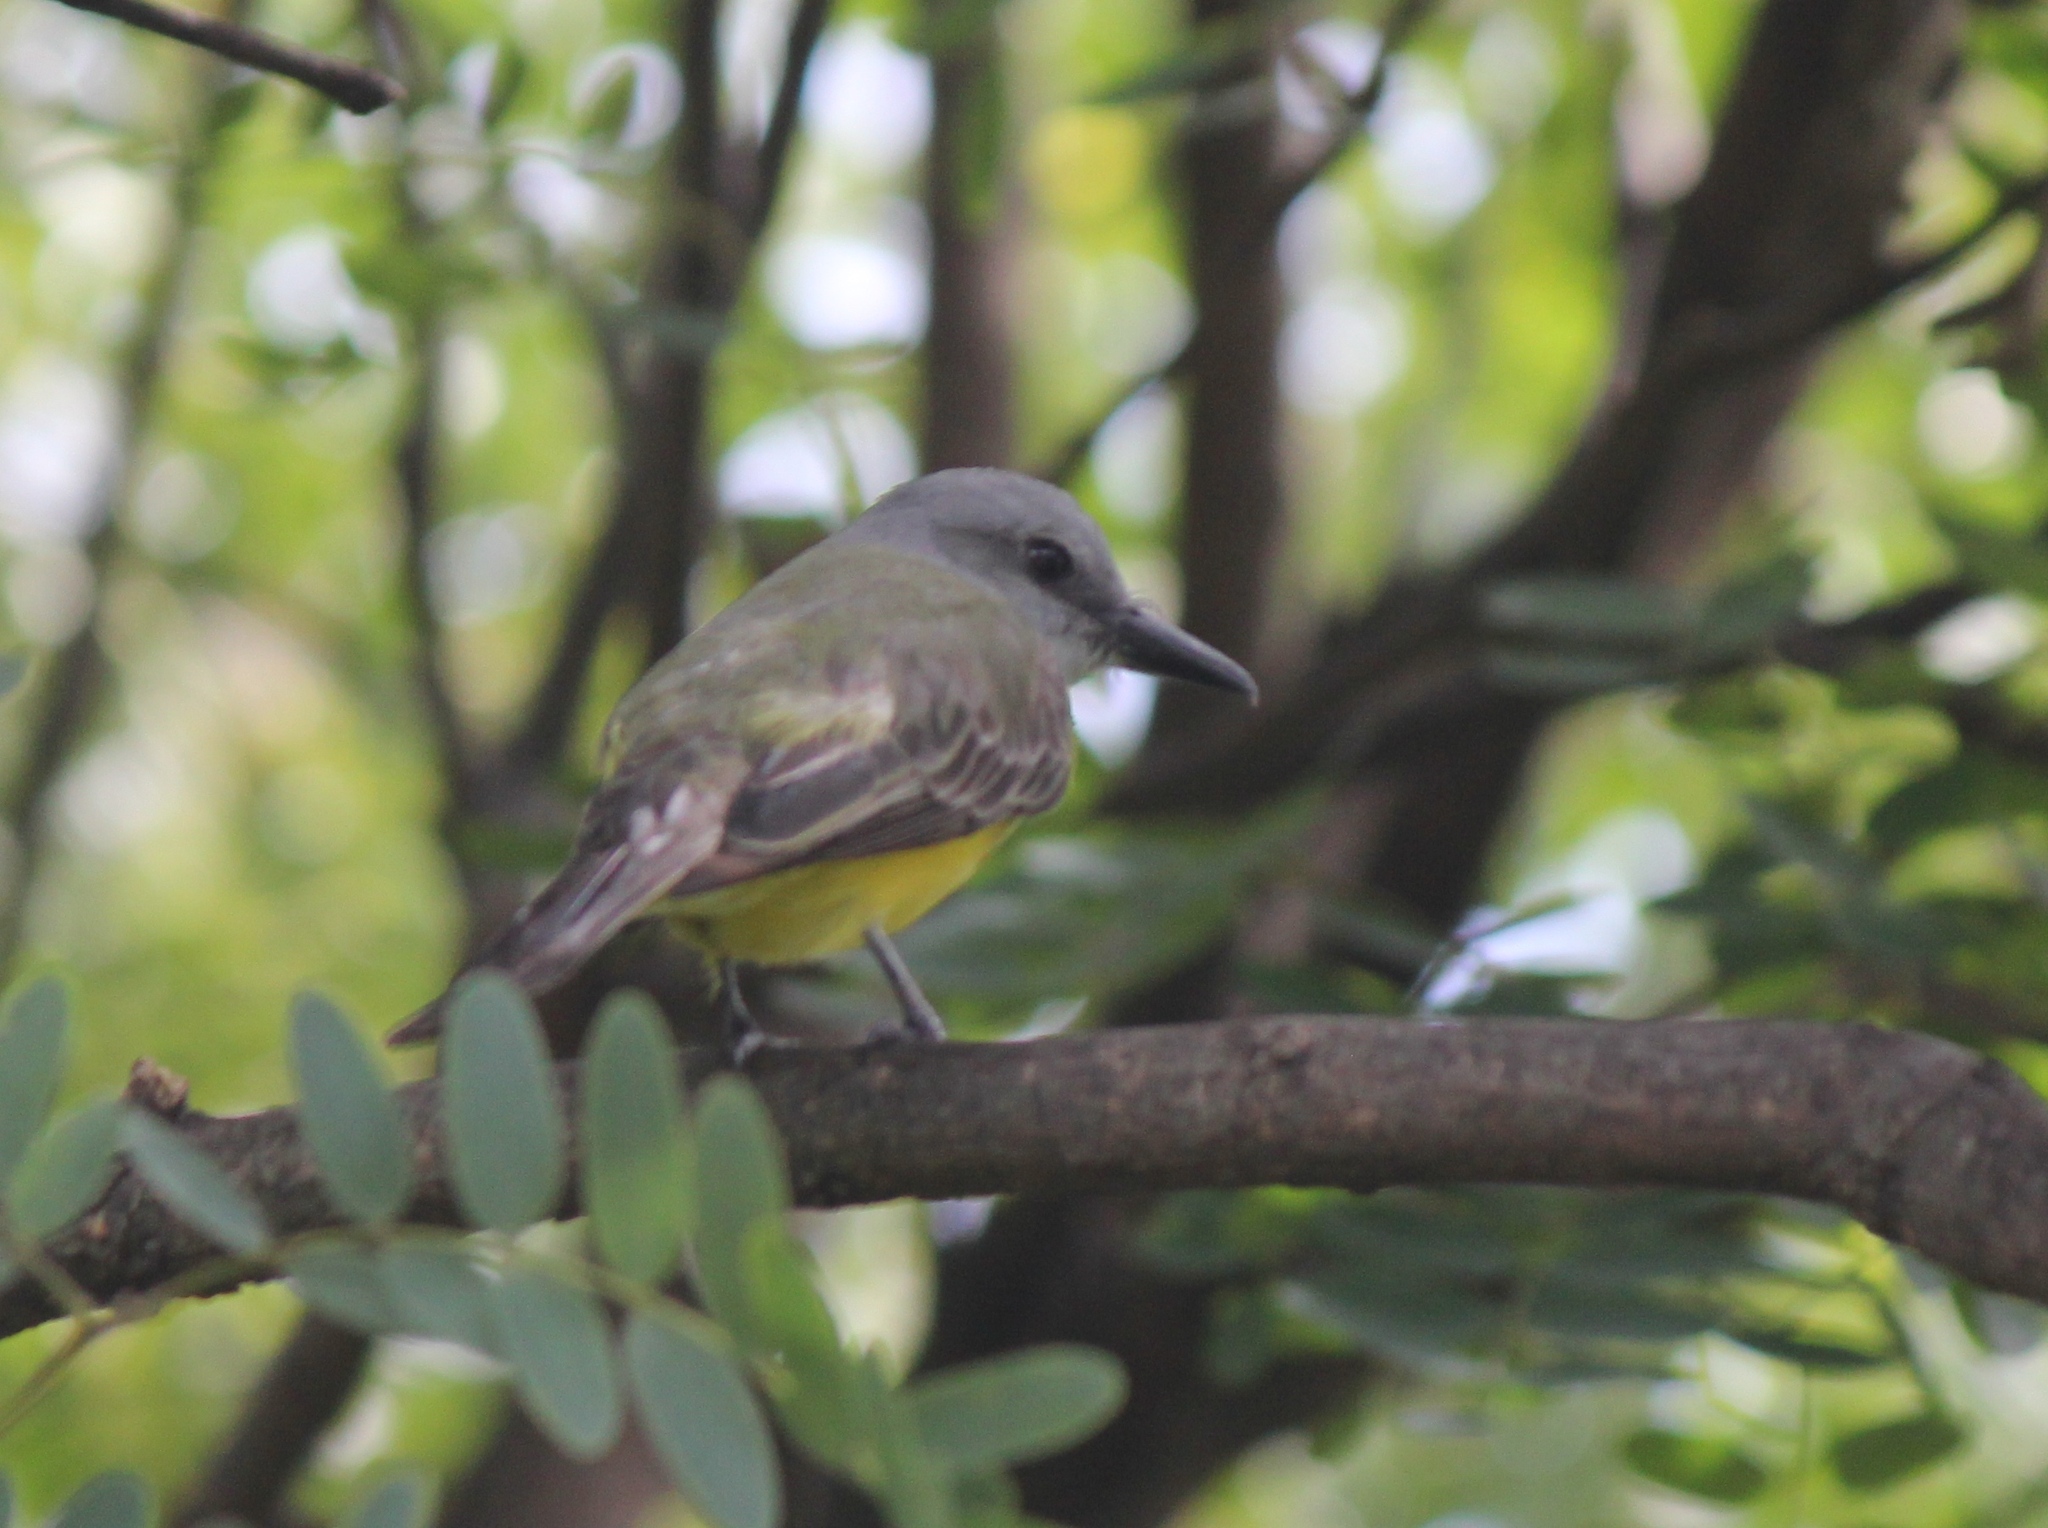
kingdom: Animalia
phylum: Chordata
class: Aves
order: Passeriformes
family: Tyrannidae
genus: Tyrannus
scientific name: Tyrannus melancholicus
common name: Tropical kingbird
